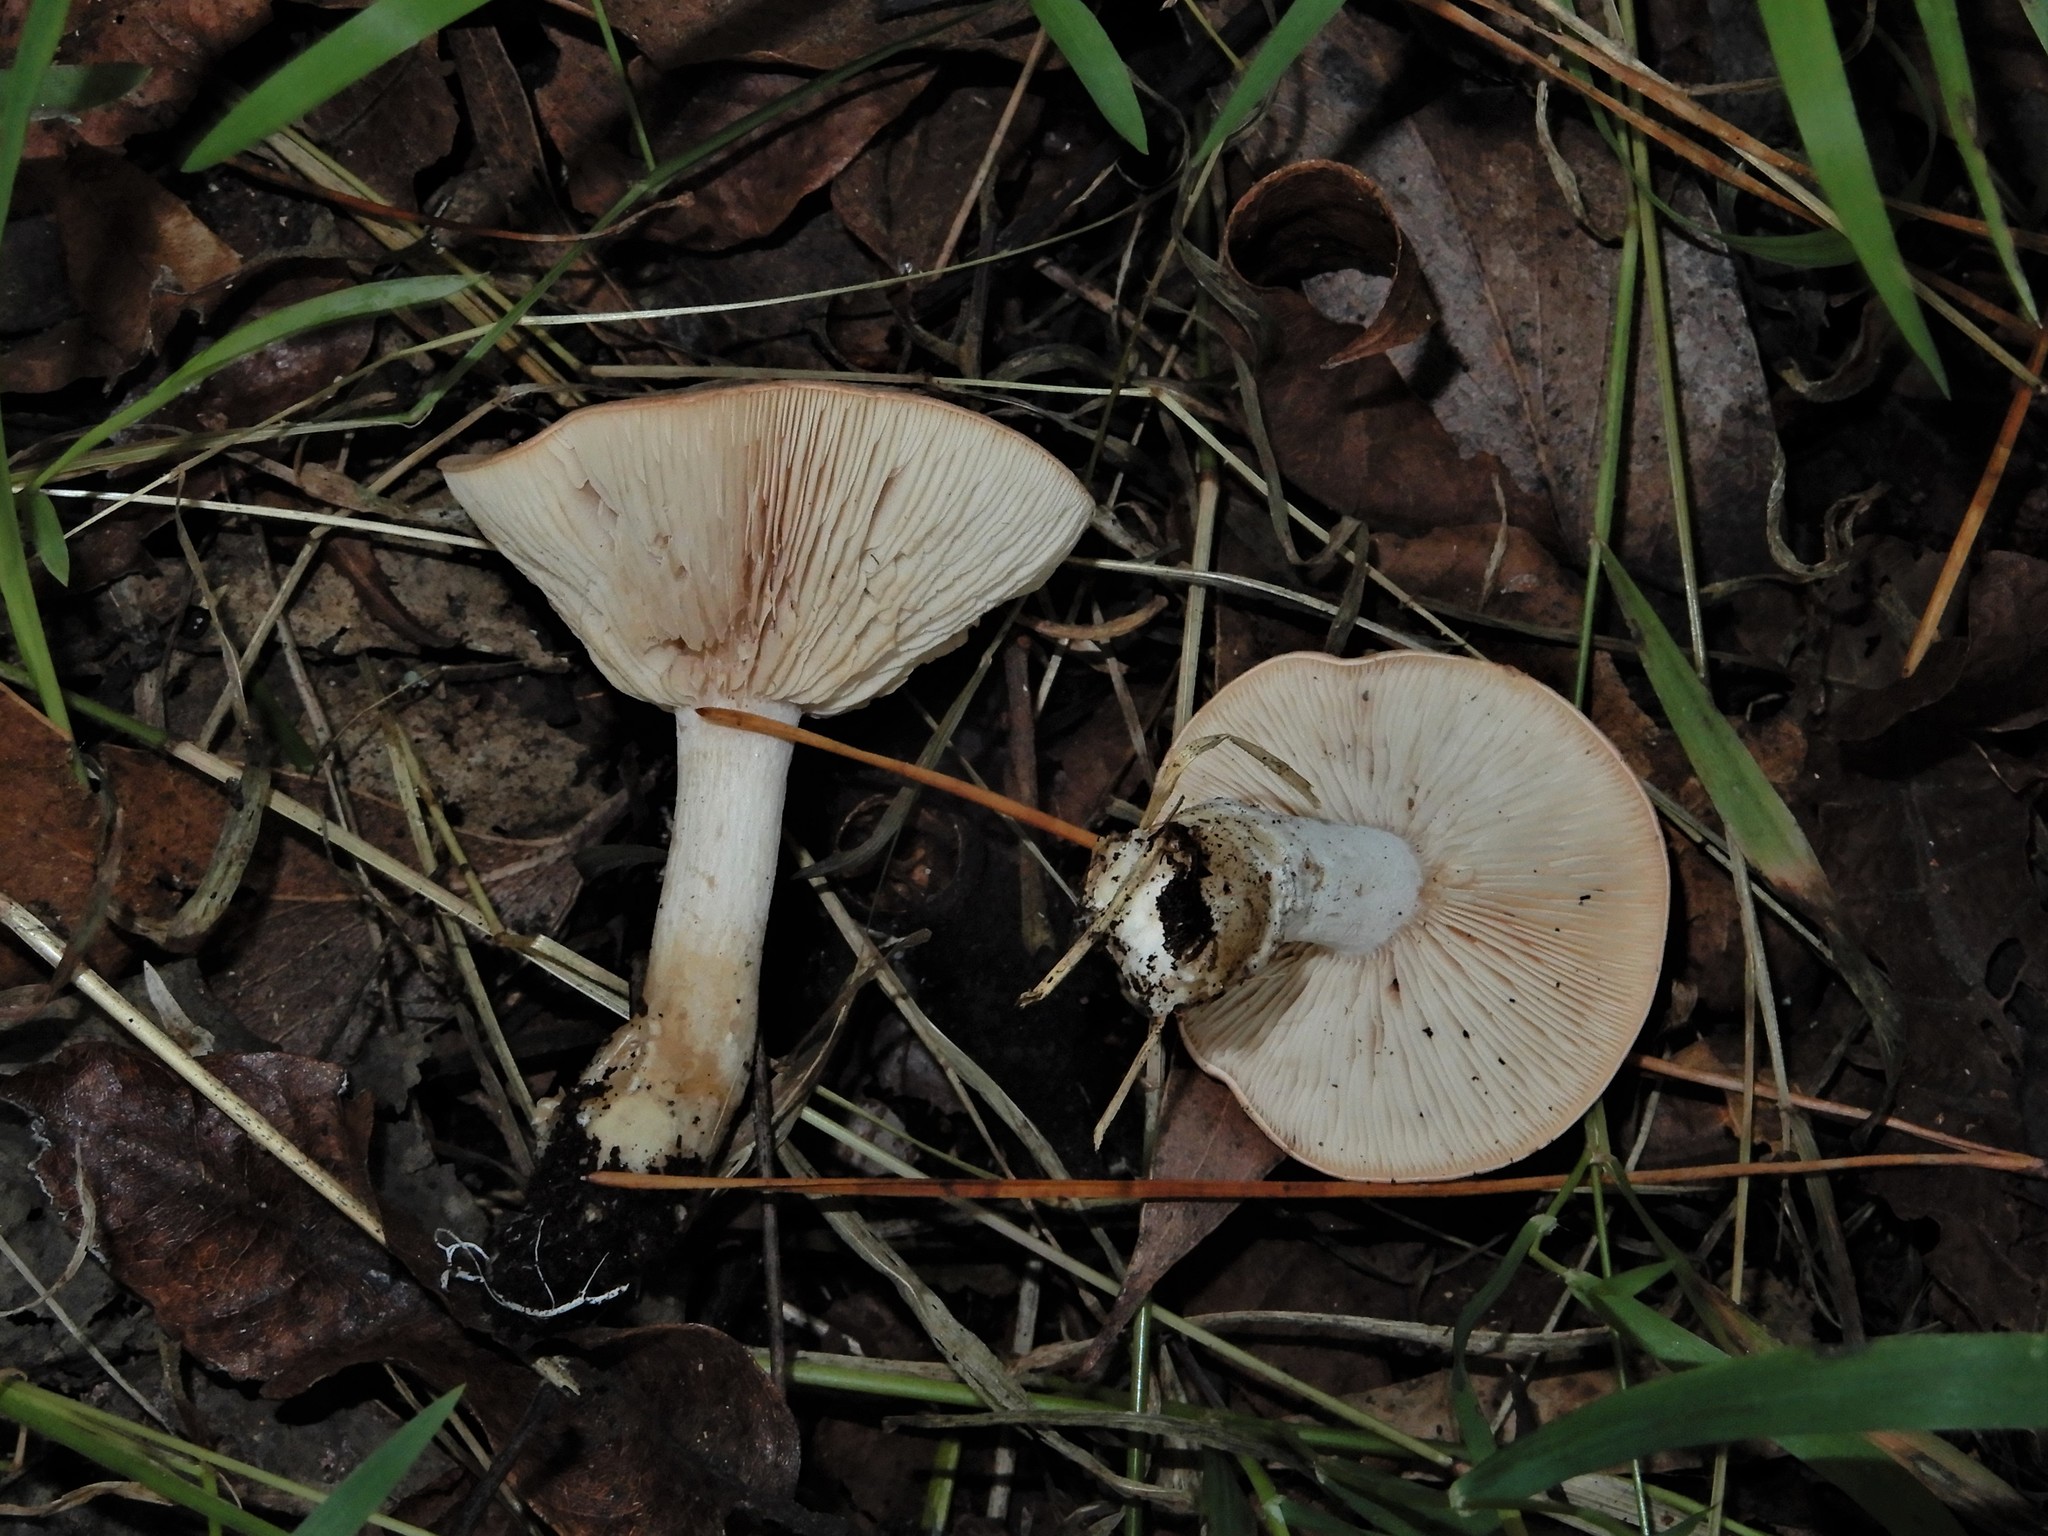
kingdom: Fungi
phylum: Basidiomycota
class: Agaricomycetes
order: Agaricales
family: Entolomataceae
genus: Clitopilus
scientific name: Clitopilus piperitus
